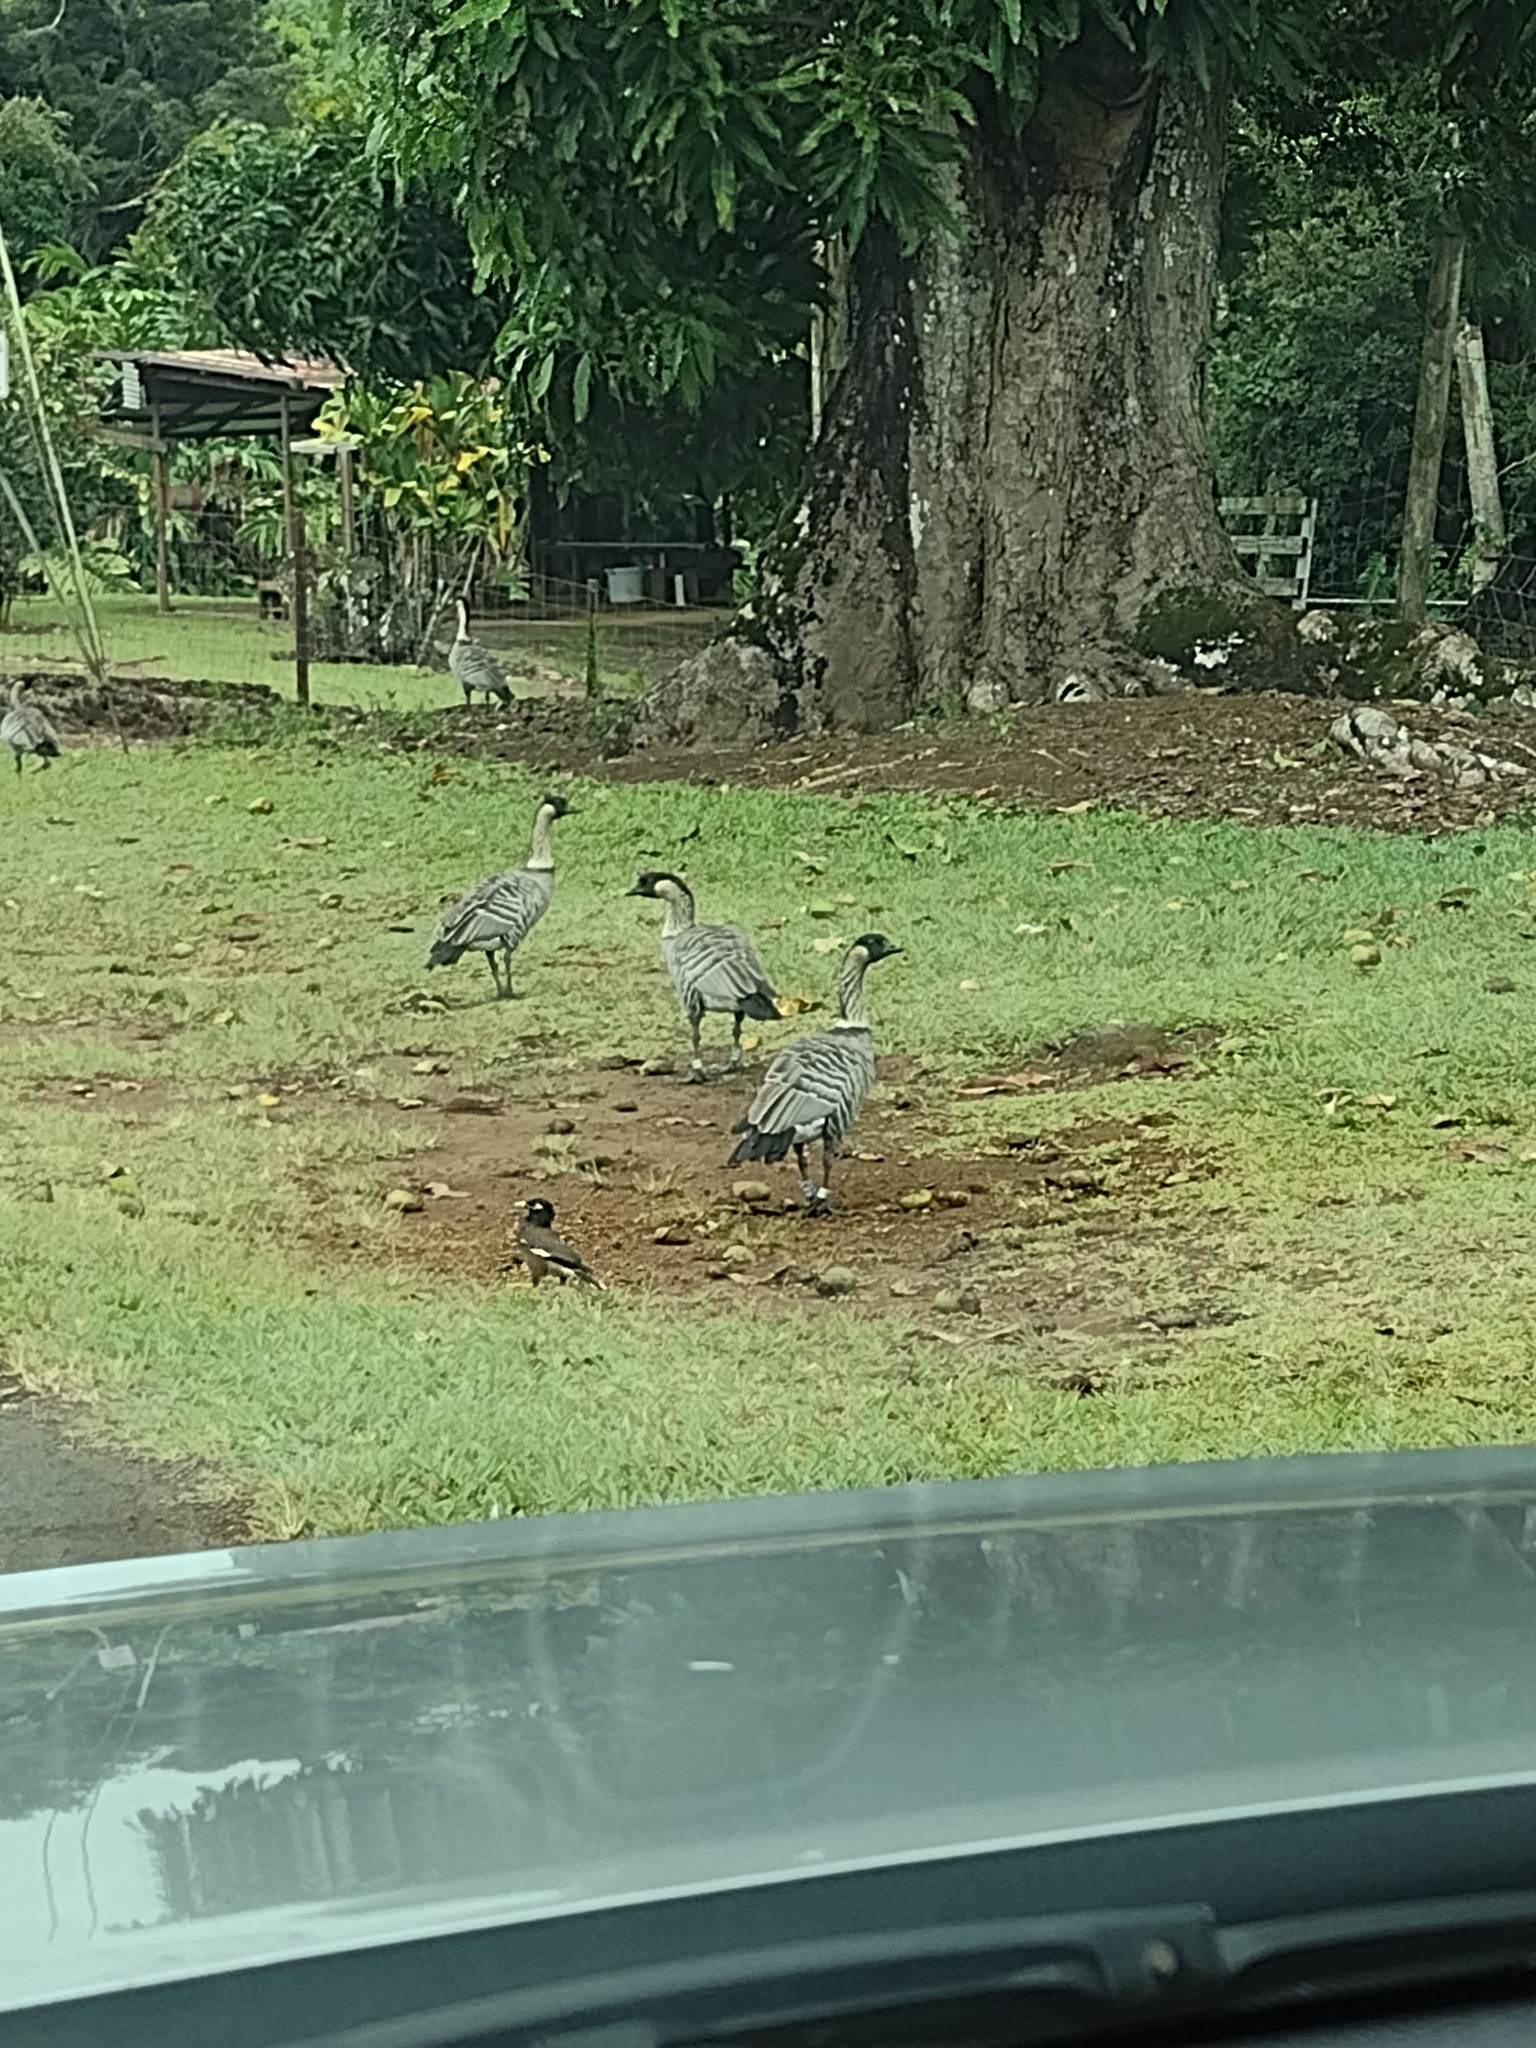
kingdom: Animalia
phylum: Chordata
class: Aves
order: Anseriformes
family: Anatidae
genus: Branta
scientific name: Branta sandvicensis
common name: Nene
